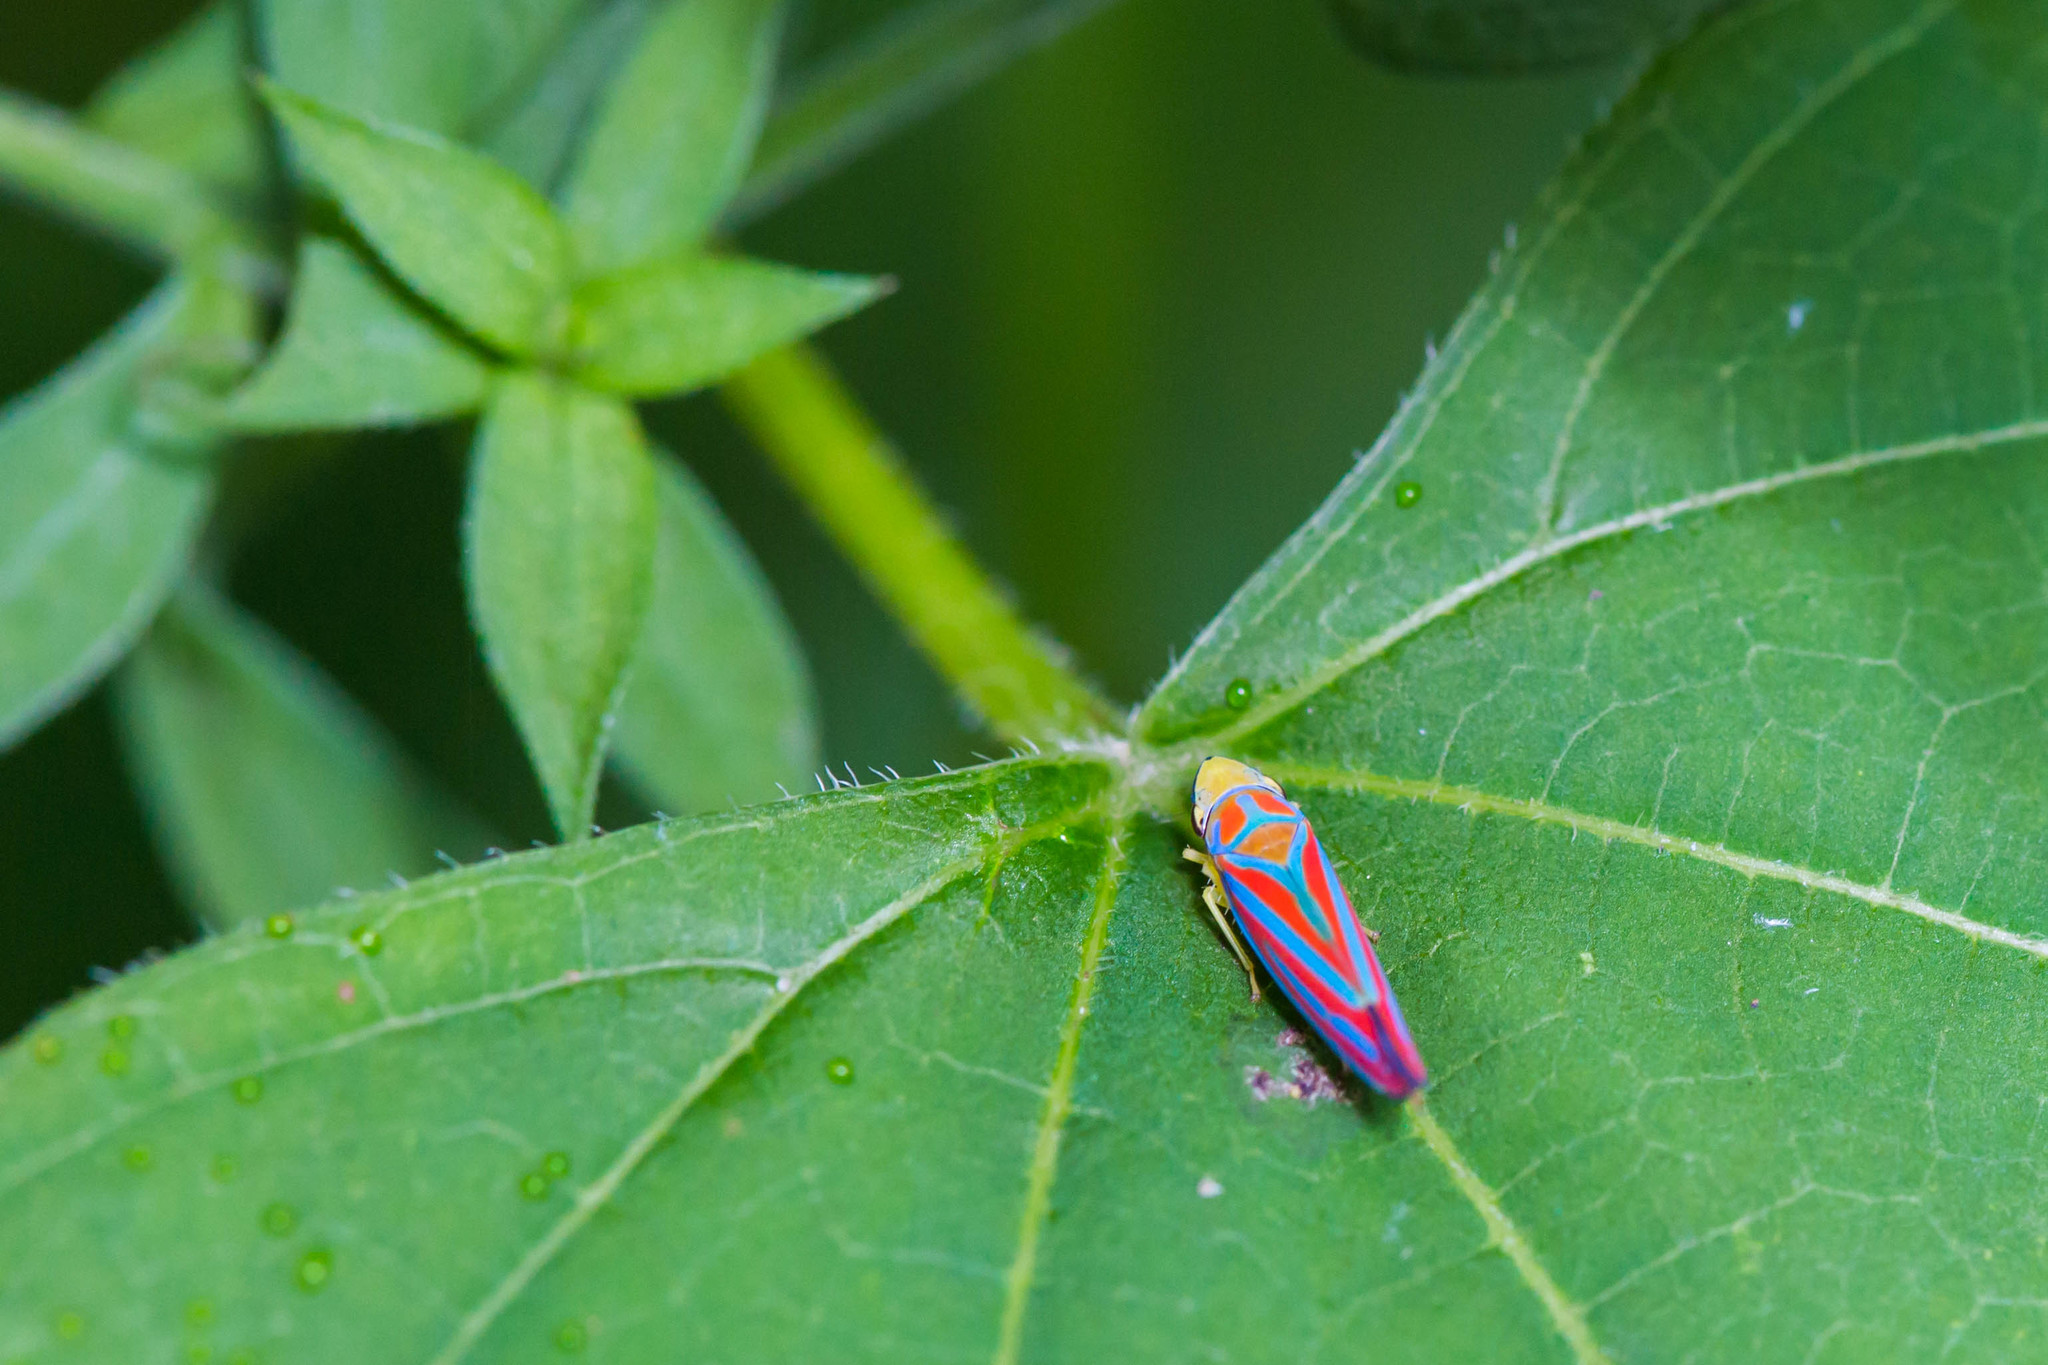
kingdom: Animalia
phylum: Arthropoda
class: Insecta
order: Hemiptera
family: Cicadellidae
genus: Graphocephala
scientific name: Graphocephala
